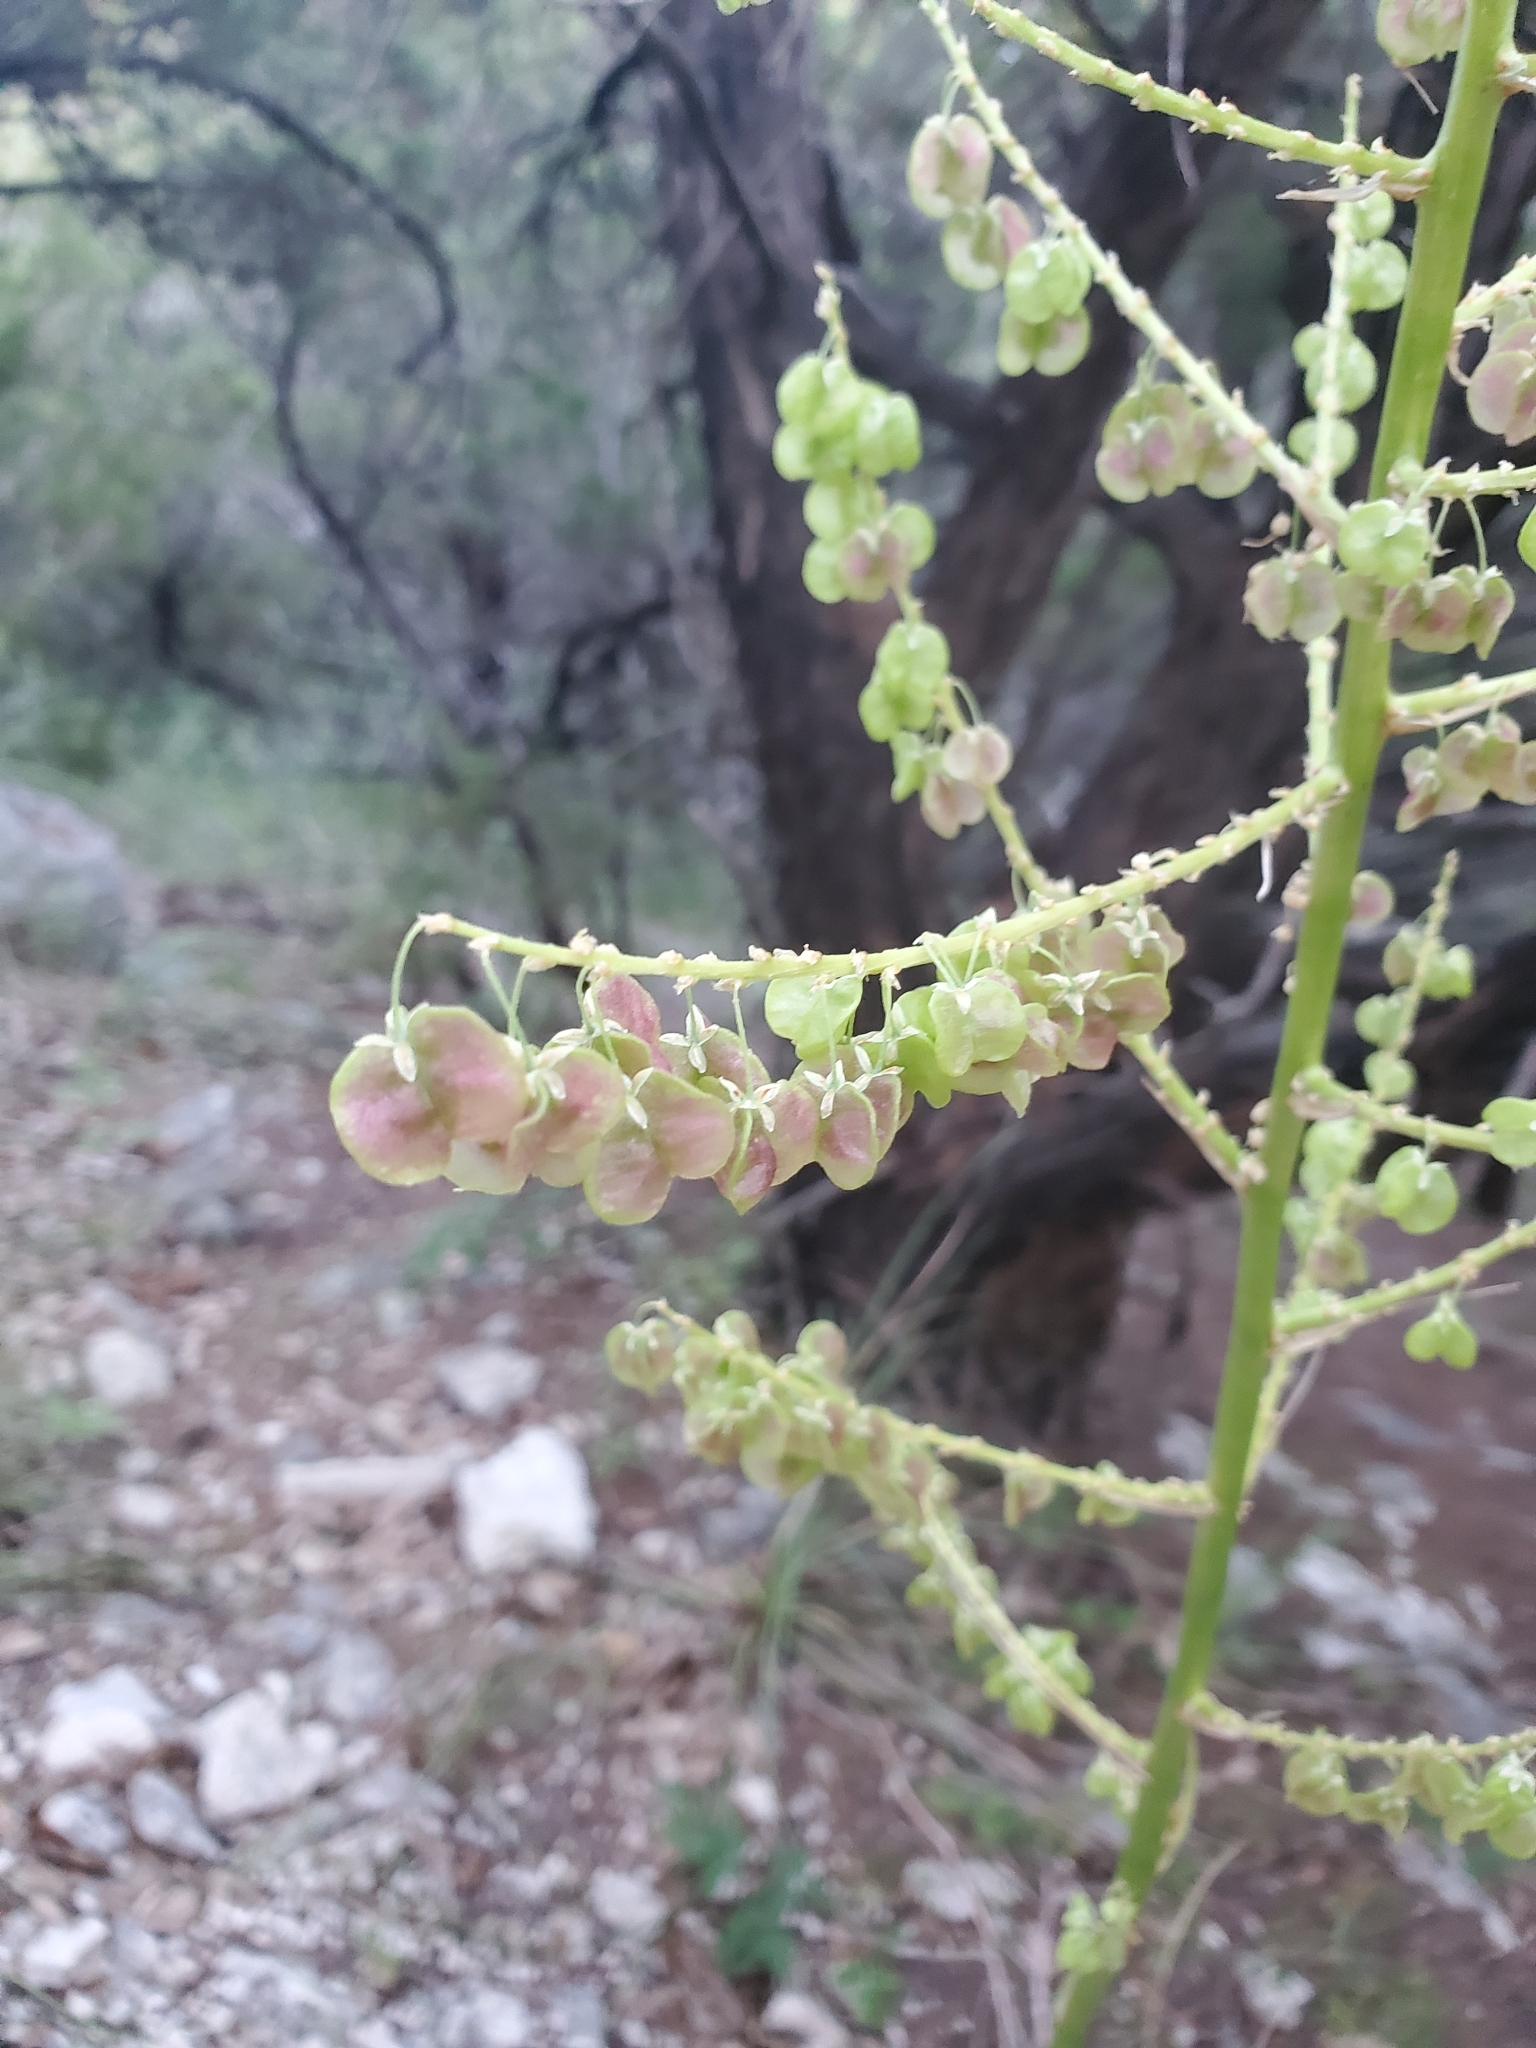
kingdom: Plantae
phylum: Tracheophyta
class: Liliopsida
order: Asparagales
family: Asparagaceae
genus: Nolina
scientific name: Nolina lindheimeriana
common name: Lindheimer's bear-grass
